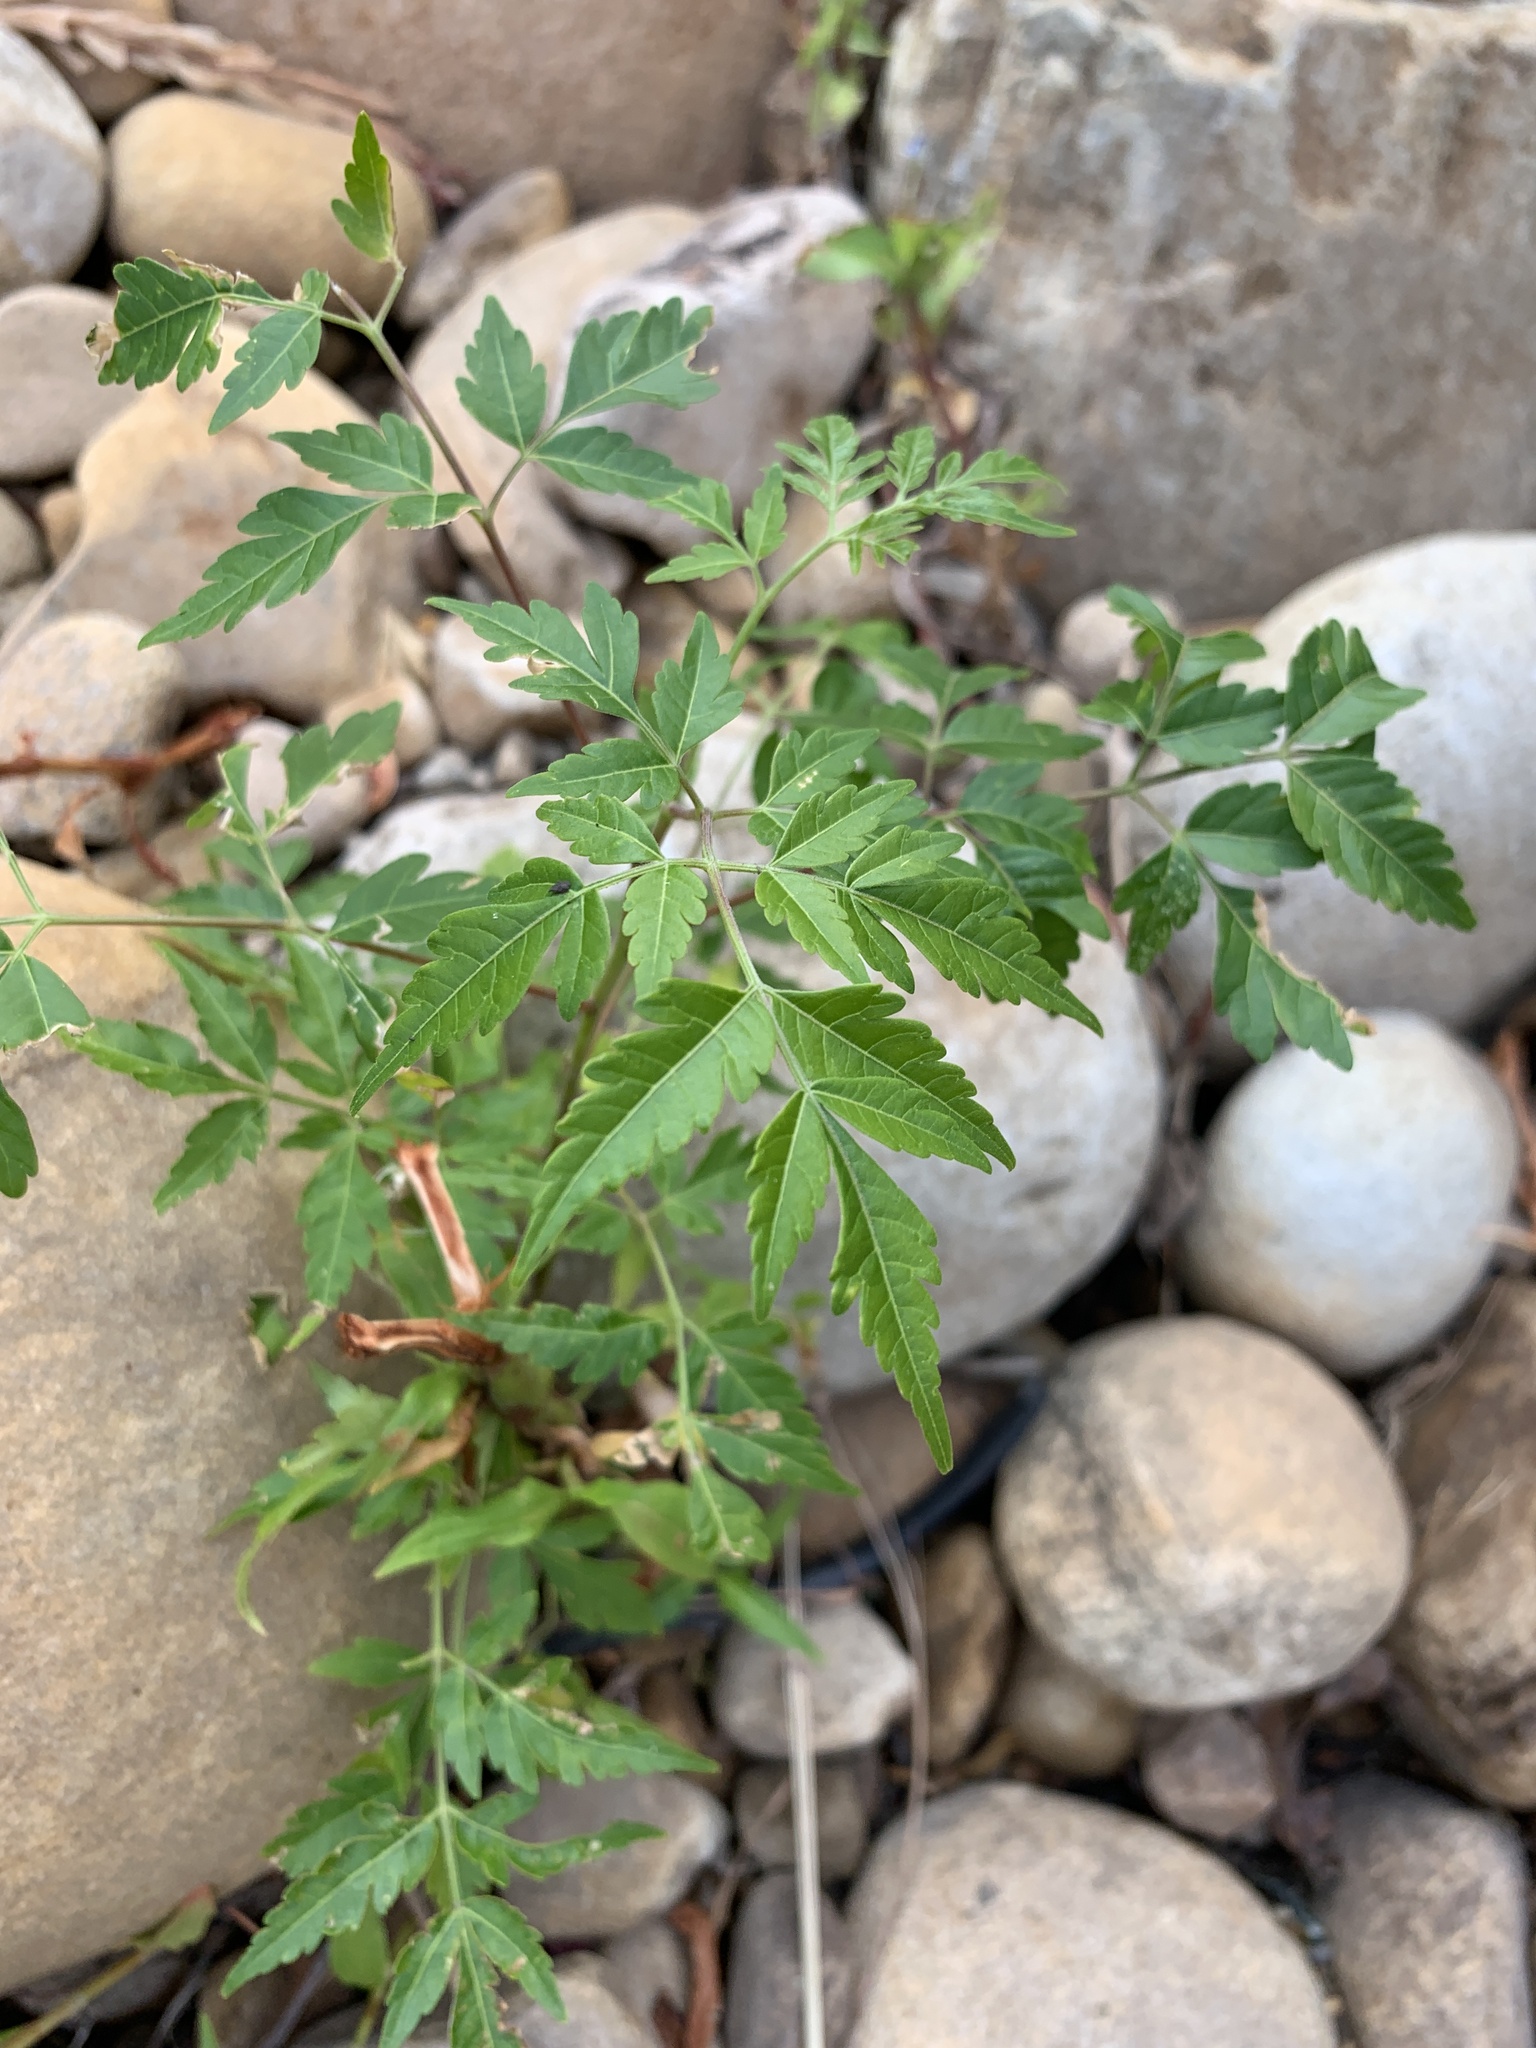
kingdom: Plantae
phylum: Tracheophyta
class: Magnoliopsida
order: Sapindales
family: Meliaceae
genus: Melia
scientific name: Melia azedarach
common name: Chinaberrytree
